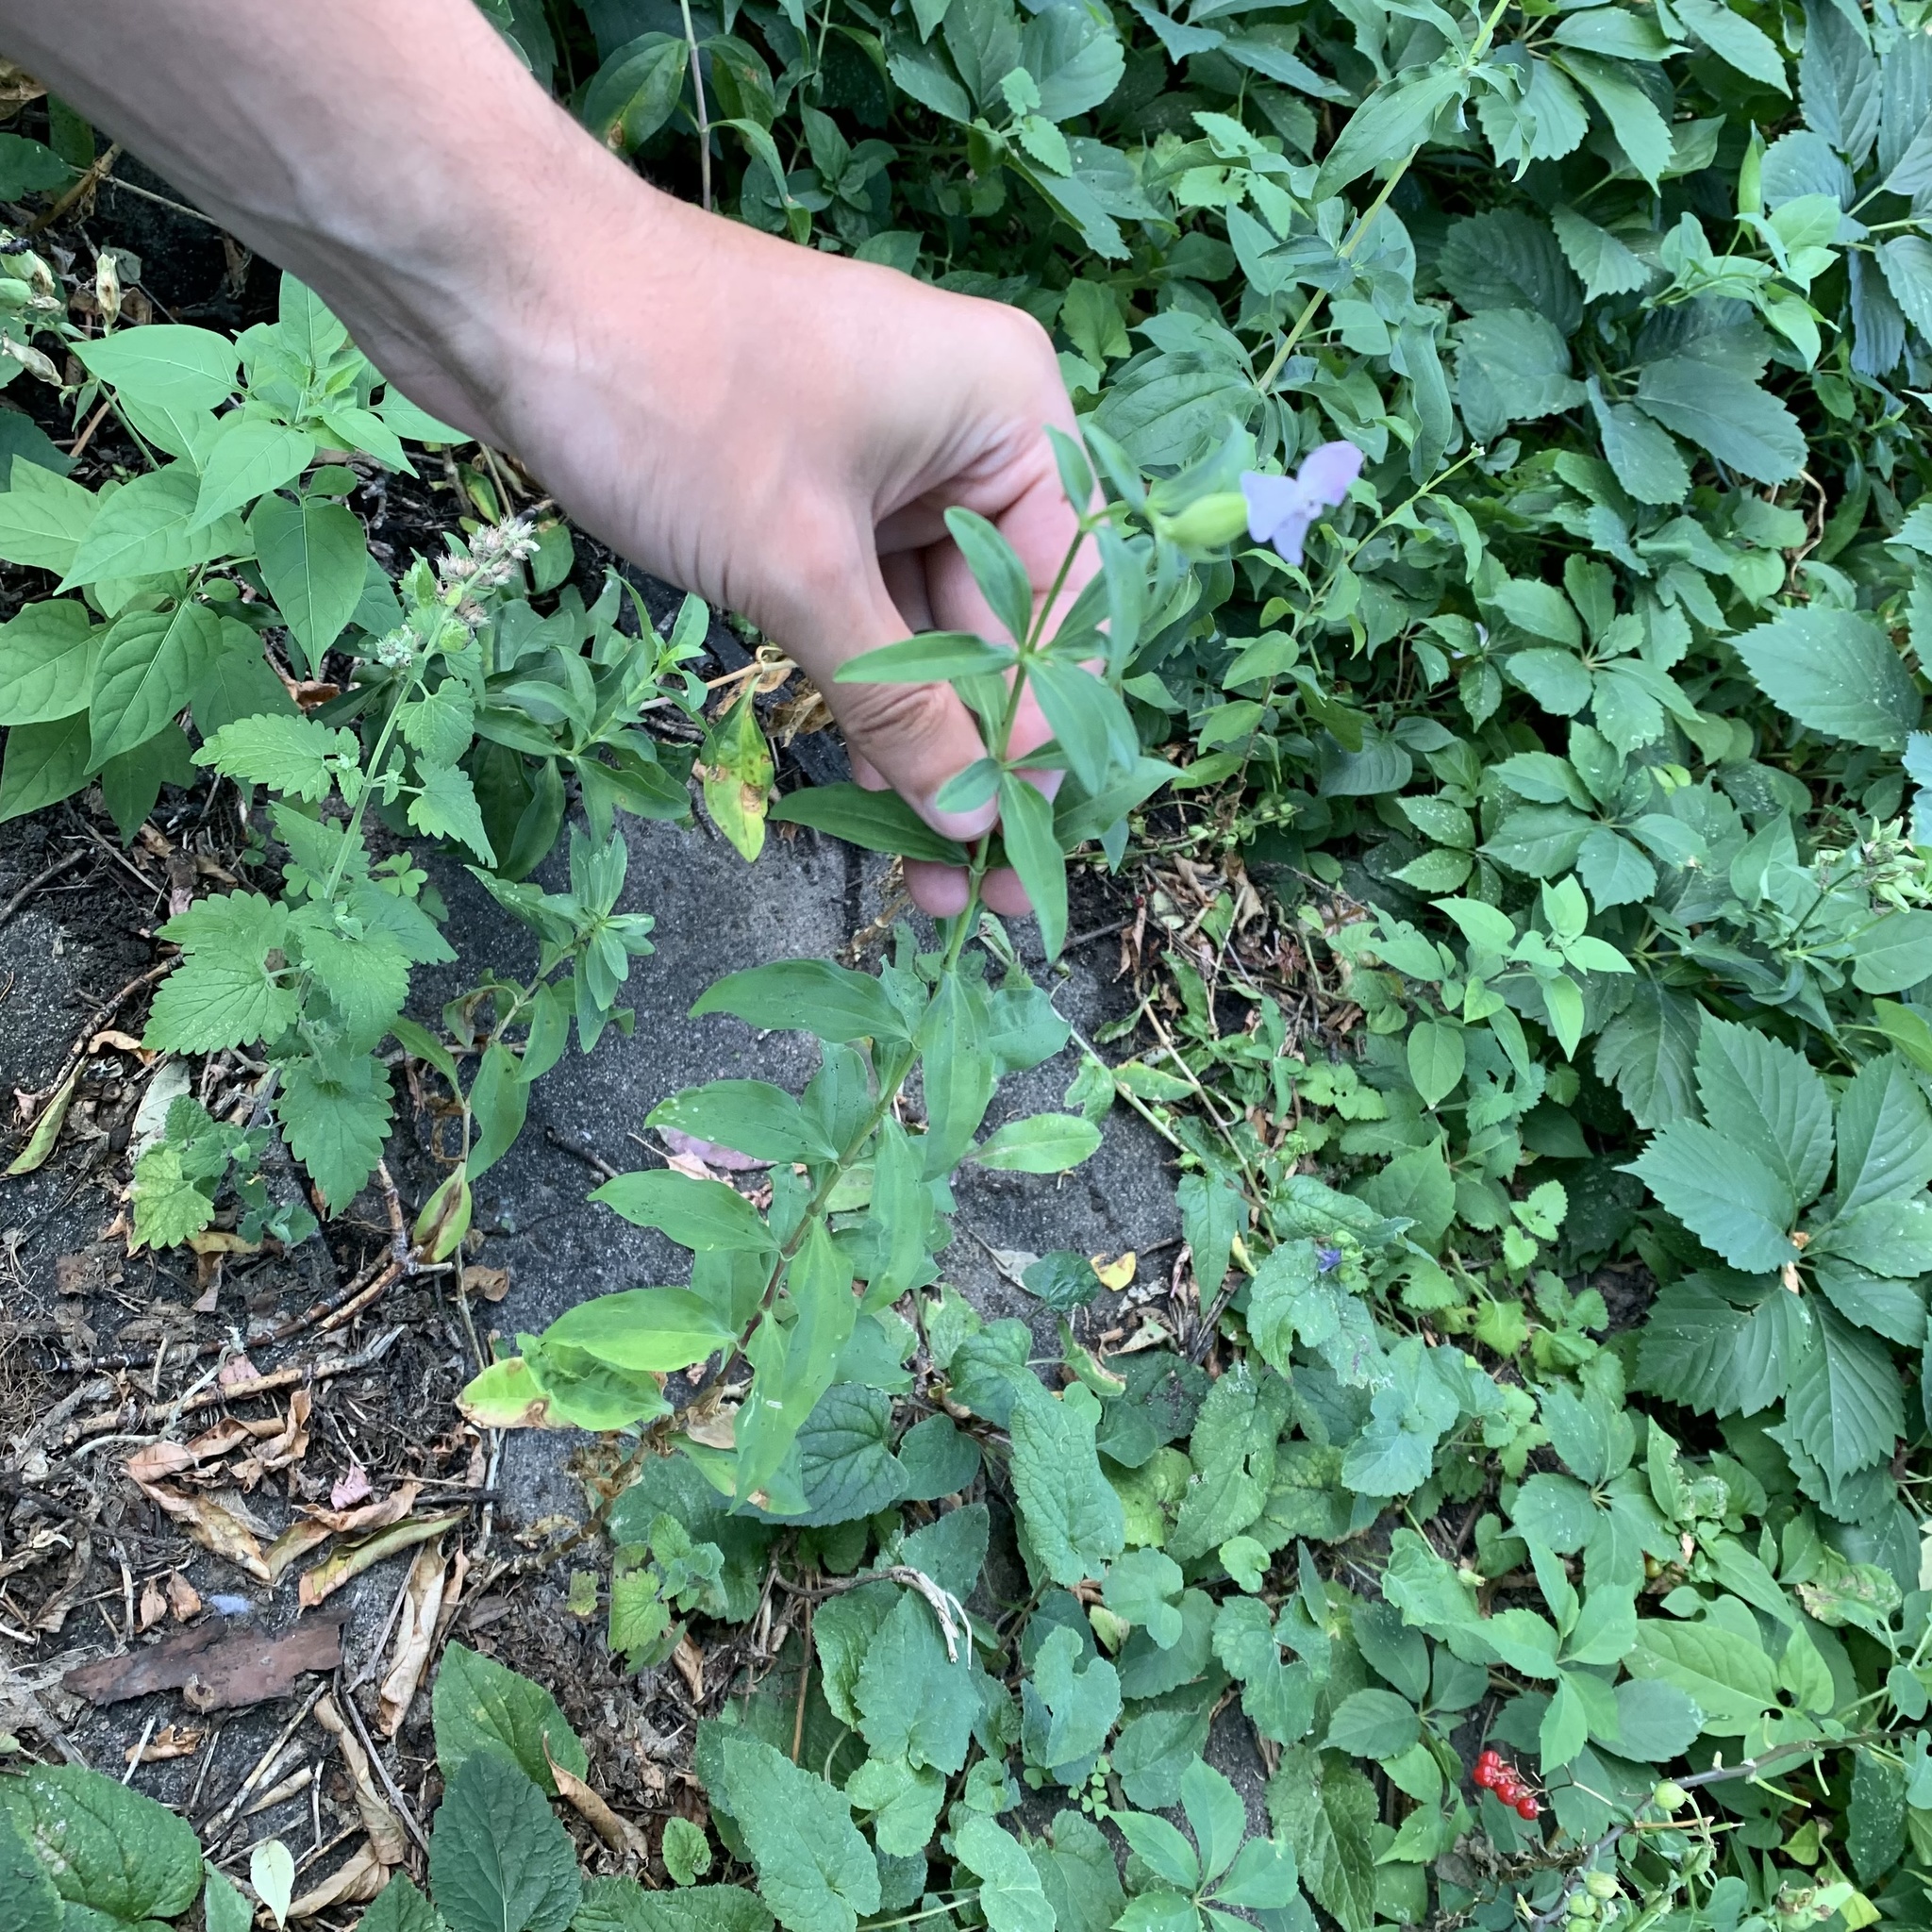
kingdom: Plantae
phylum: Tracheophyta
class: Magnoliopsida
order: Caryophyllales
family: Caryophyllaceae
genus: Saponaria
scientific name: Saponaria officinalis
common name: Soapwort
